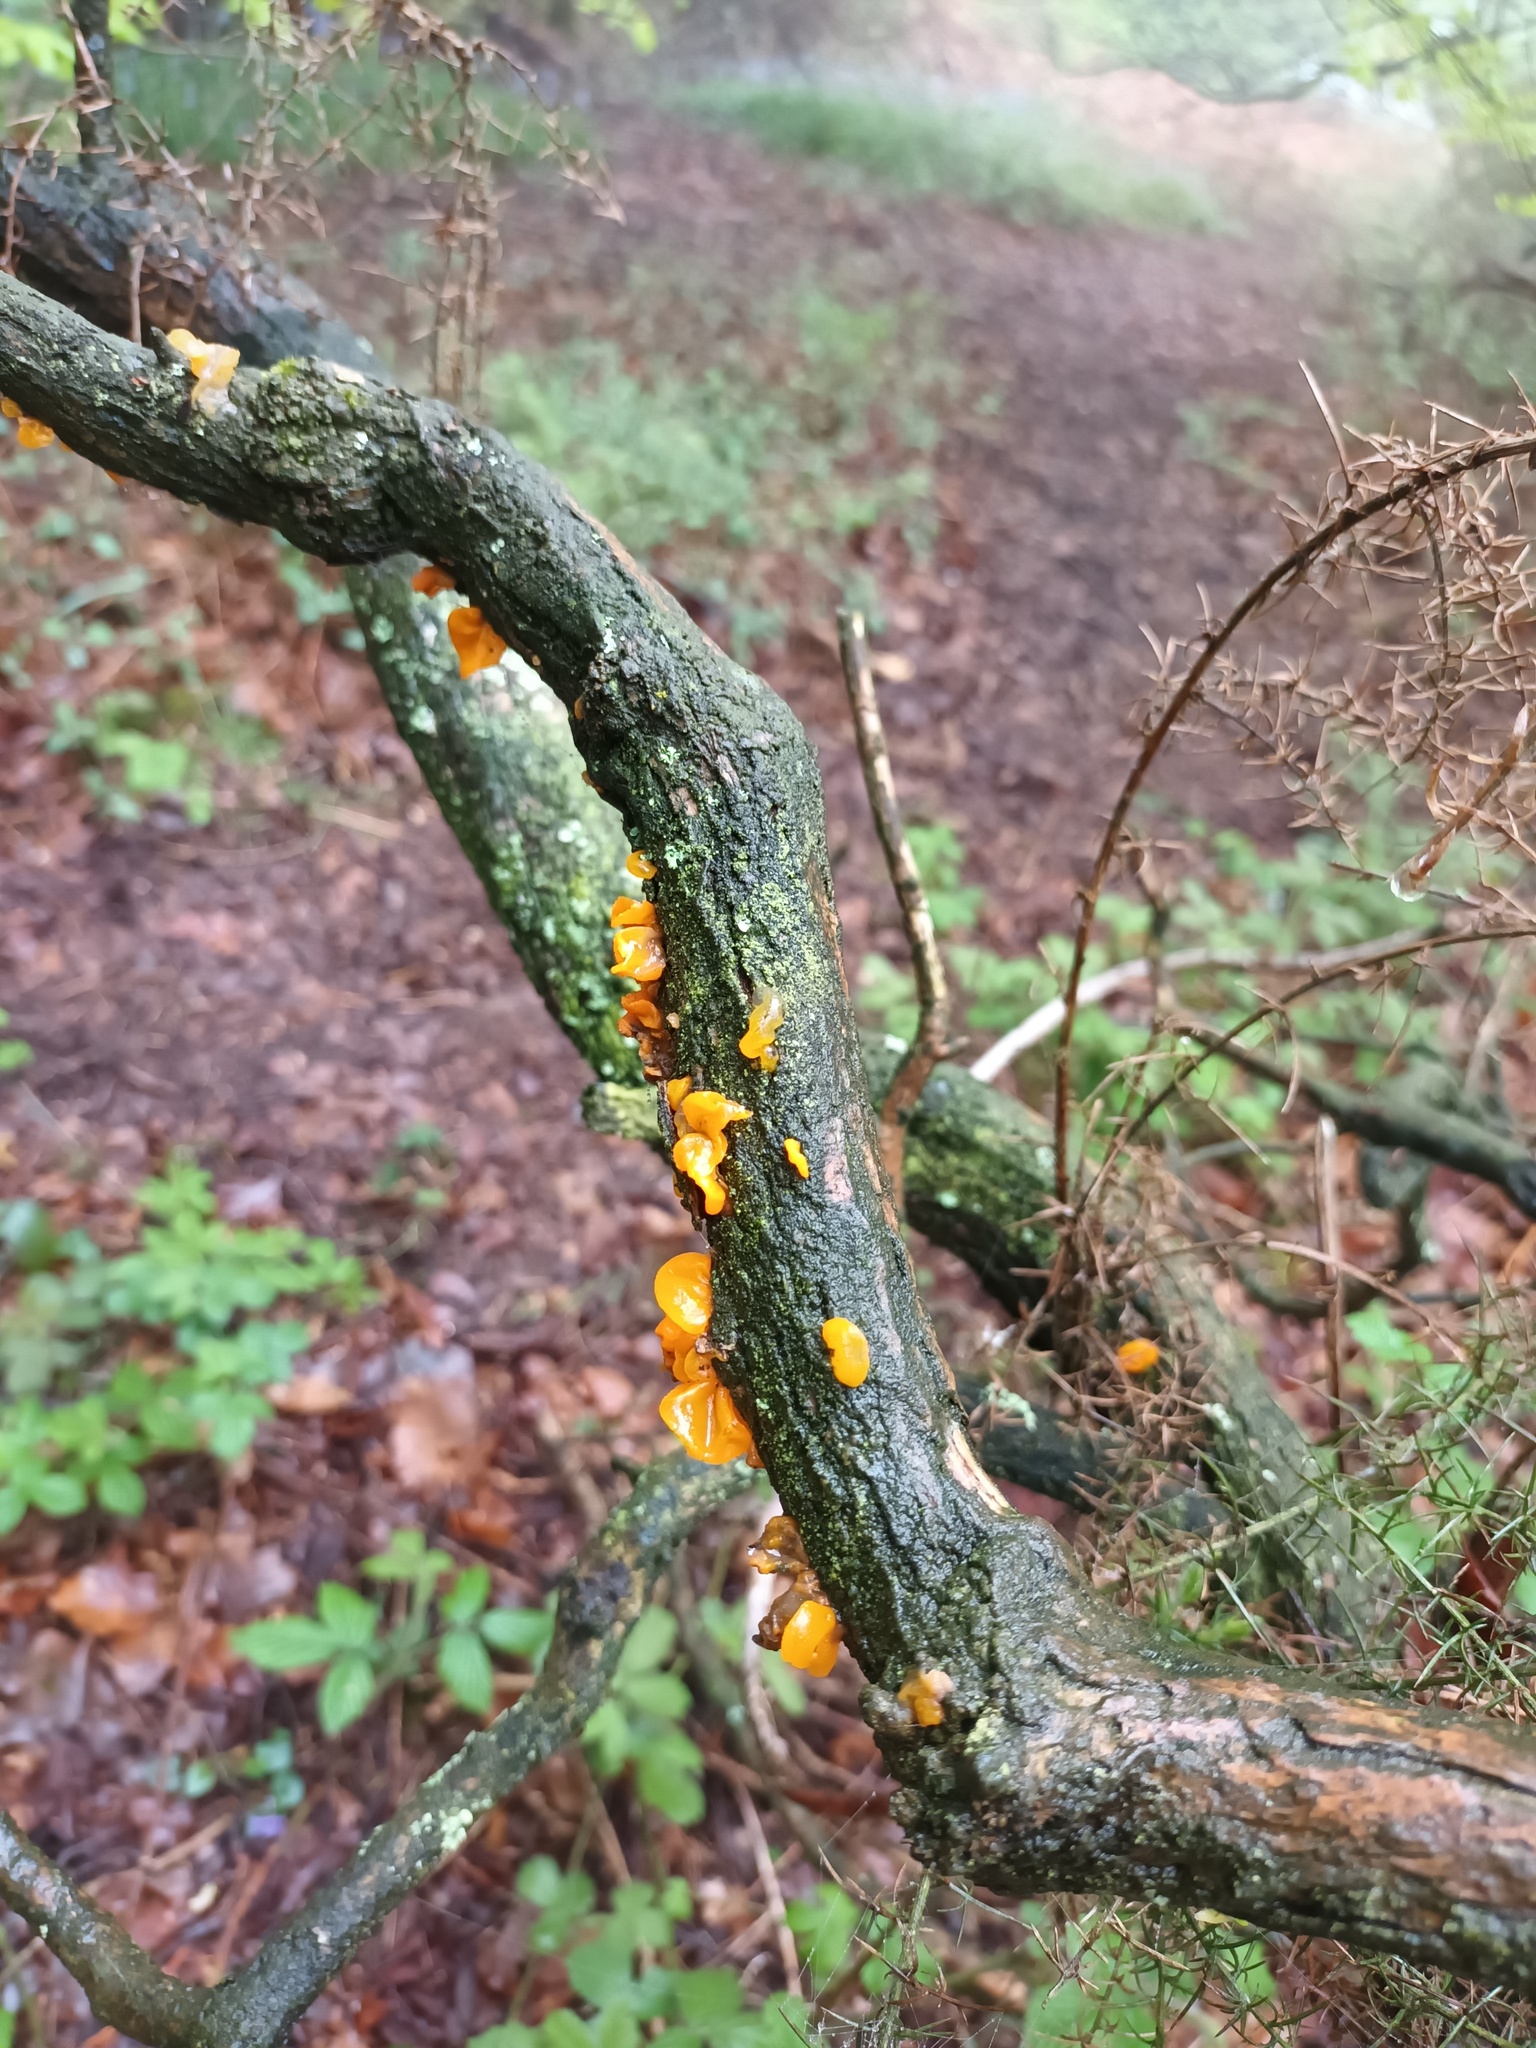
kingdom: Fungi
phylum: Basidiomycota
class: Tremellomycetes
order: Tremellales
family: Tremellaceae
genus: Tremella
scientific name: Tremella mesenterica
